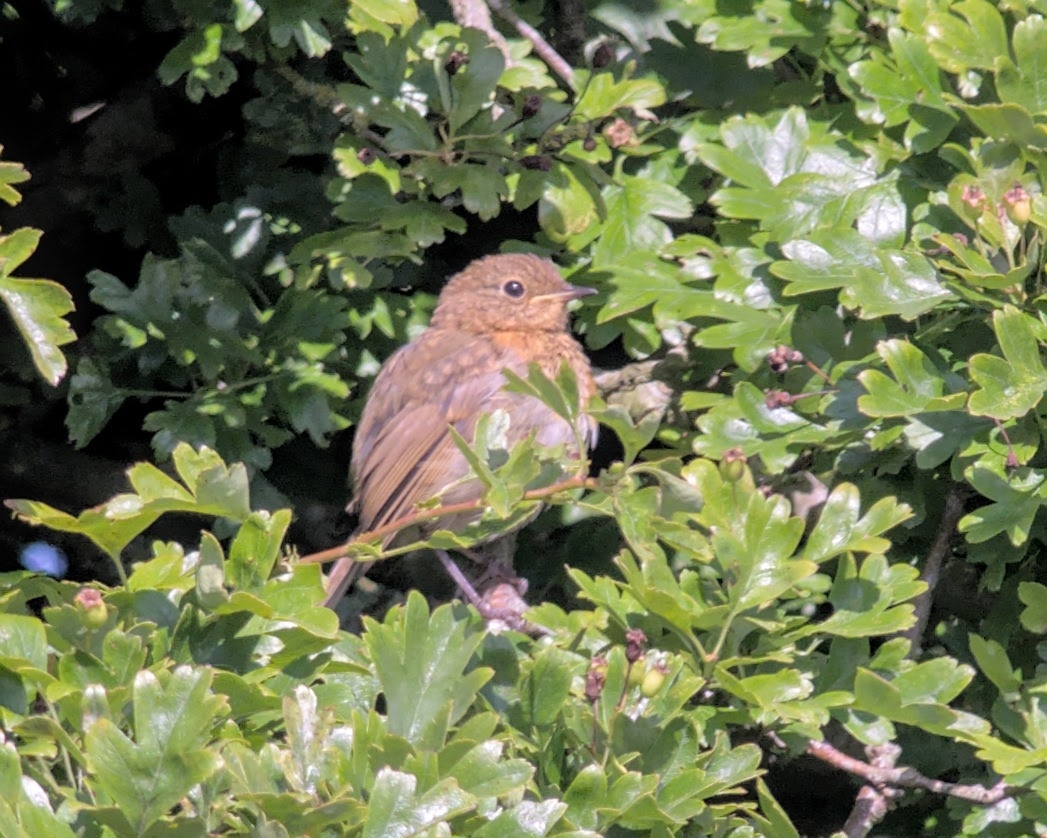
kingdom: Animalia
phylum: Chordata
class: Aves
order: Passeriformes
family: Muscicapidae
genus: Erithacus
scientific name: Erithacus rubecula
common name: European robin
